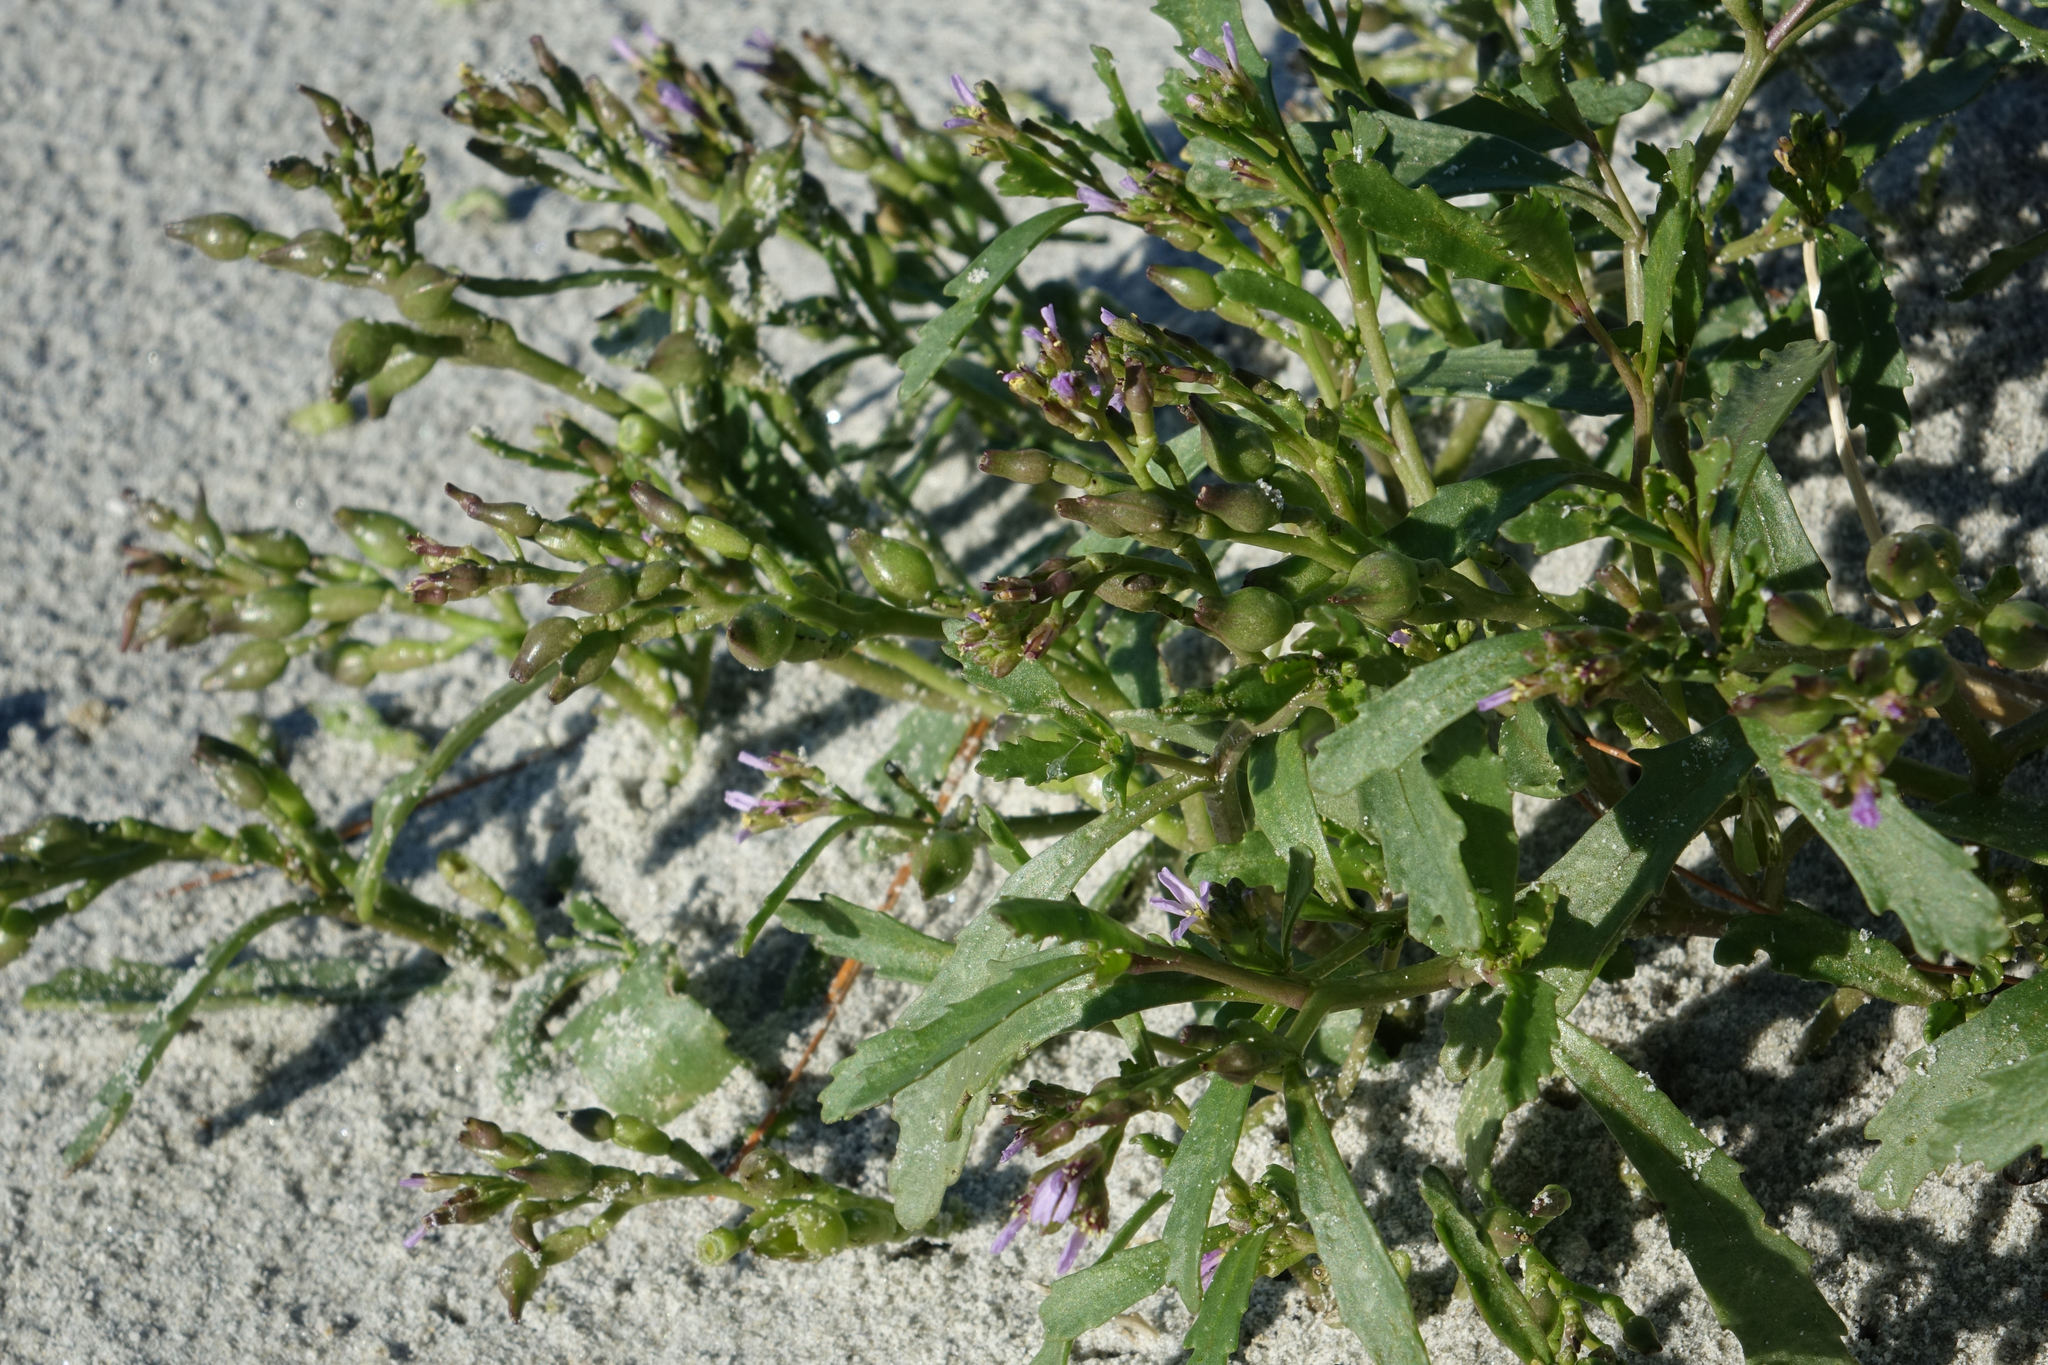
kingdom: Plantae
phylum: Tracheophyta
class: Magnoliopsida
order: Brassicales
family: Brassicaceae
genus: Cakile
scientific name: Cakile edentula
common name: American sea rocket
